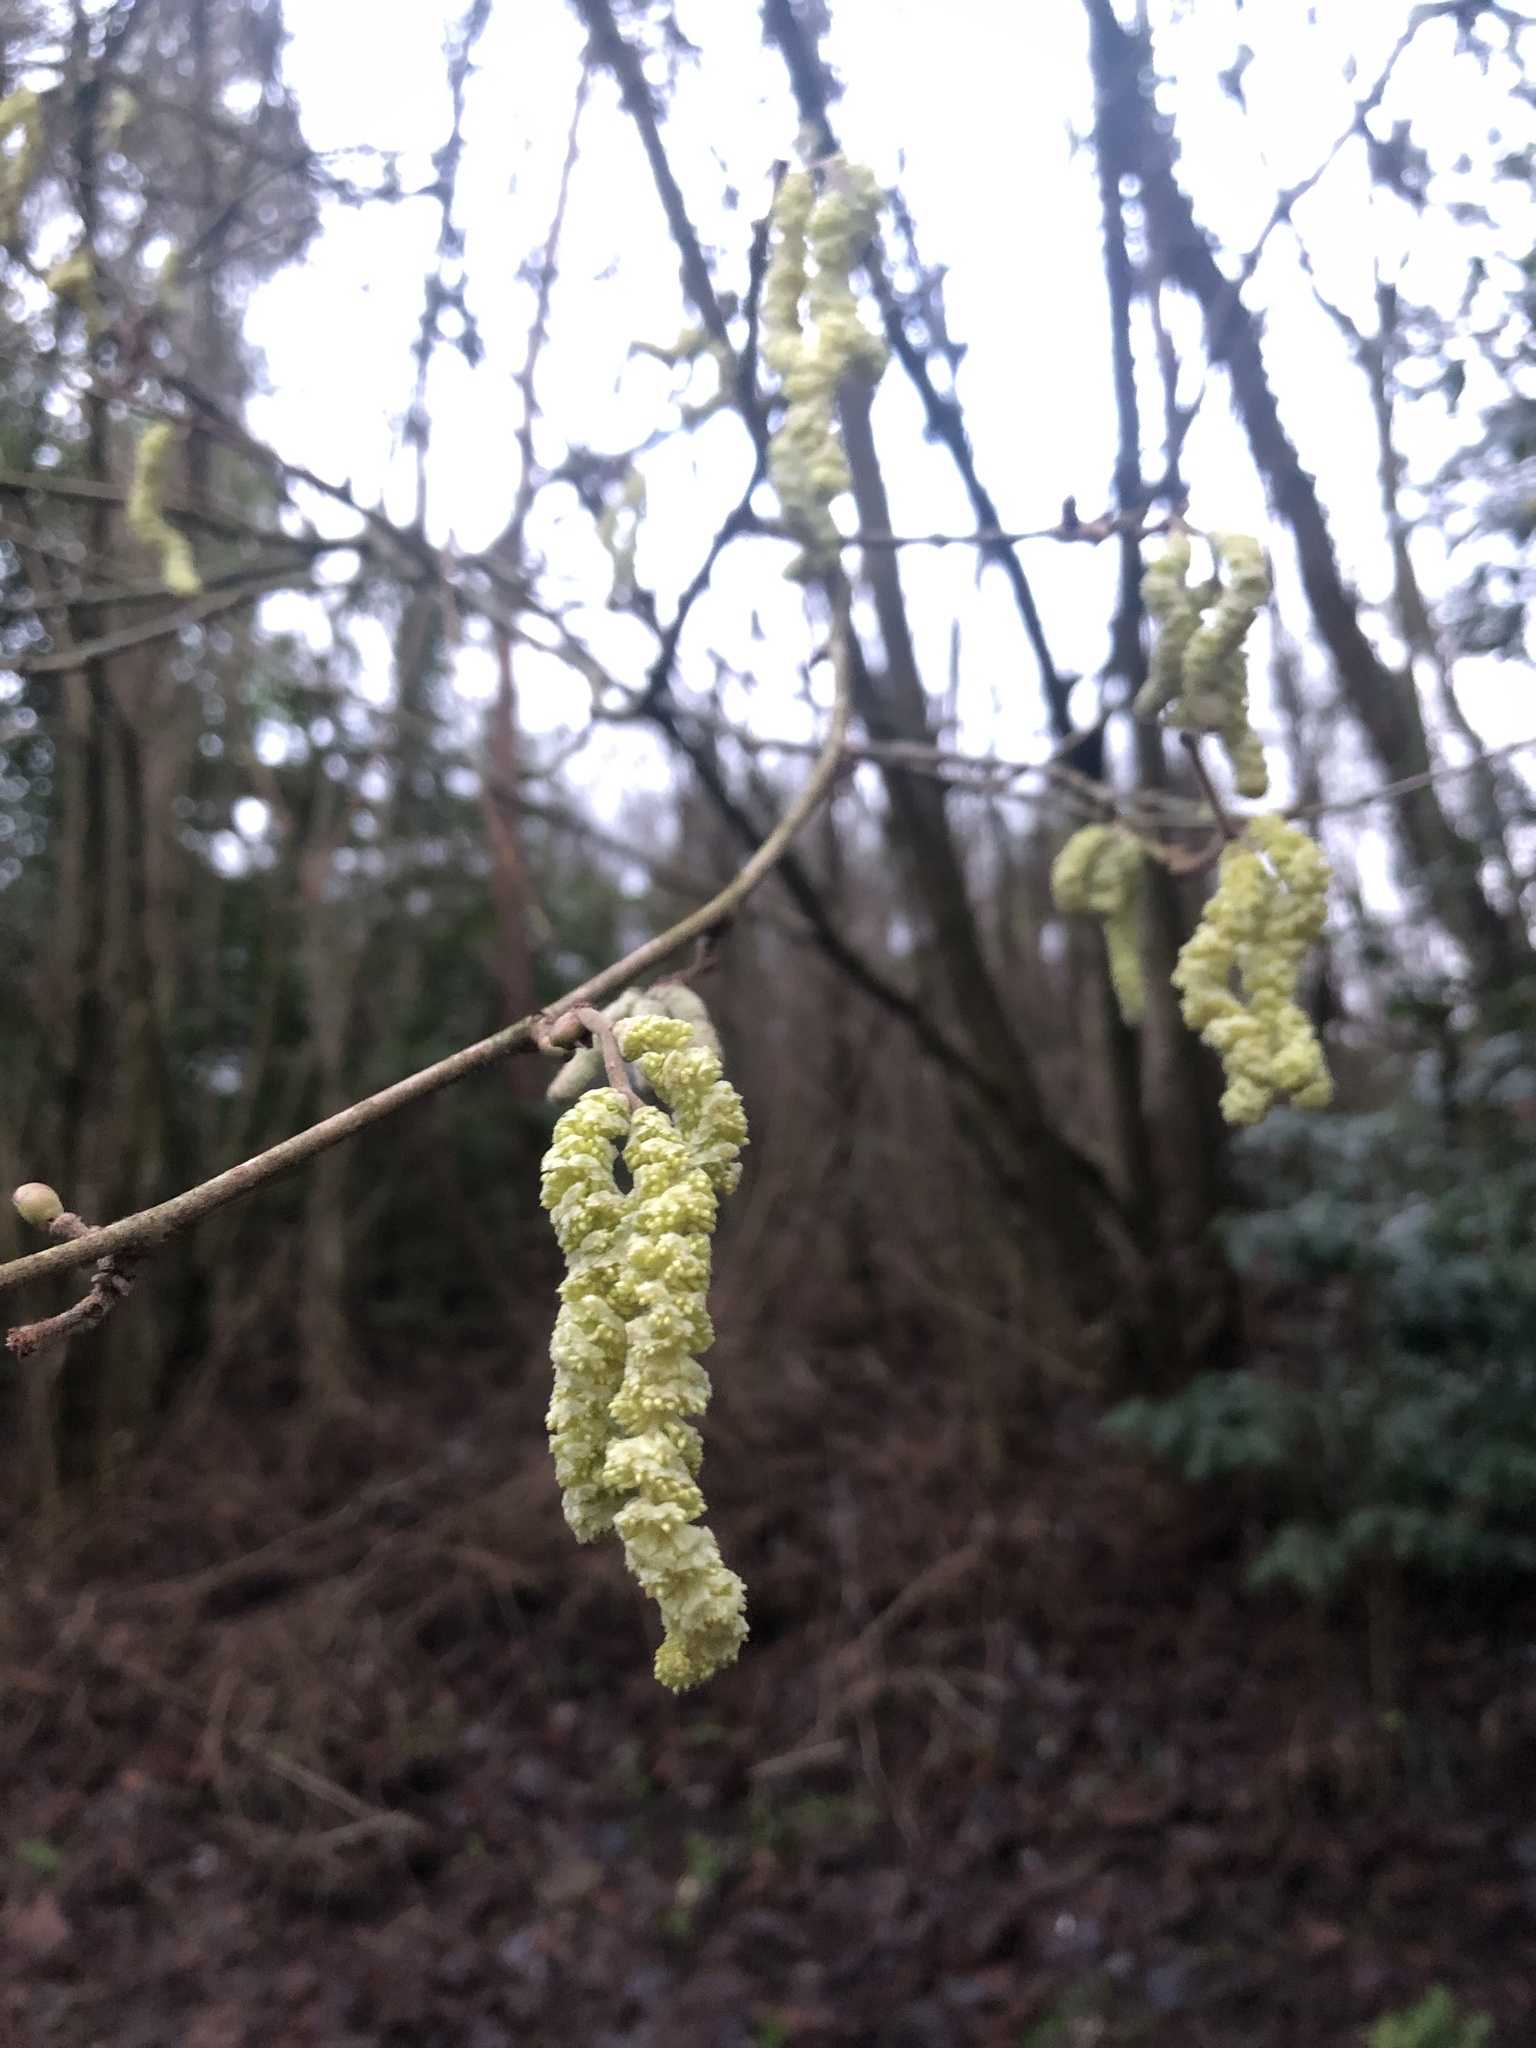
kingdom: Plantae
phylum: Tracheophyta
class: Magnoliopsida
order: Fagales
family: Betulaceae
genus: Corylus
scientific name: Corylus avellana
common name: European hazel
